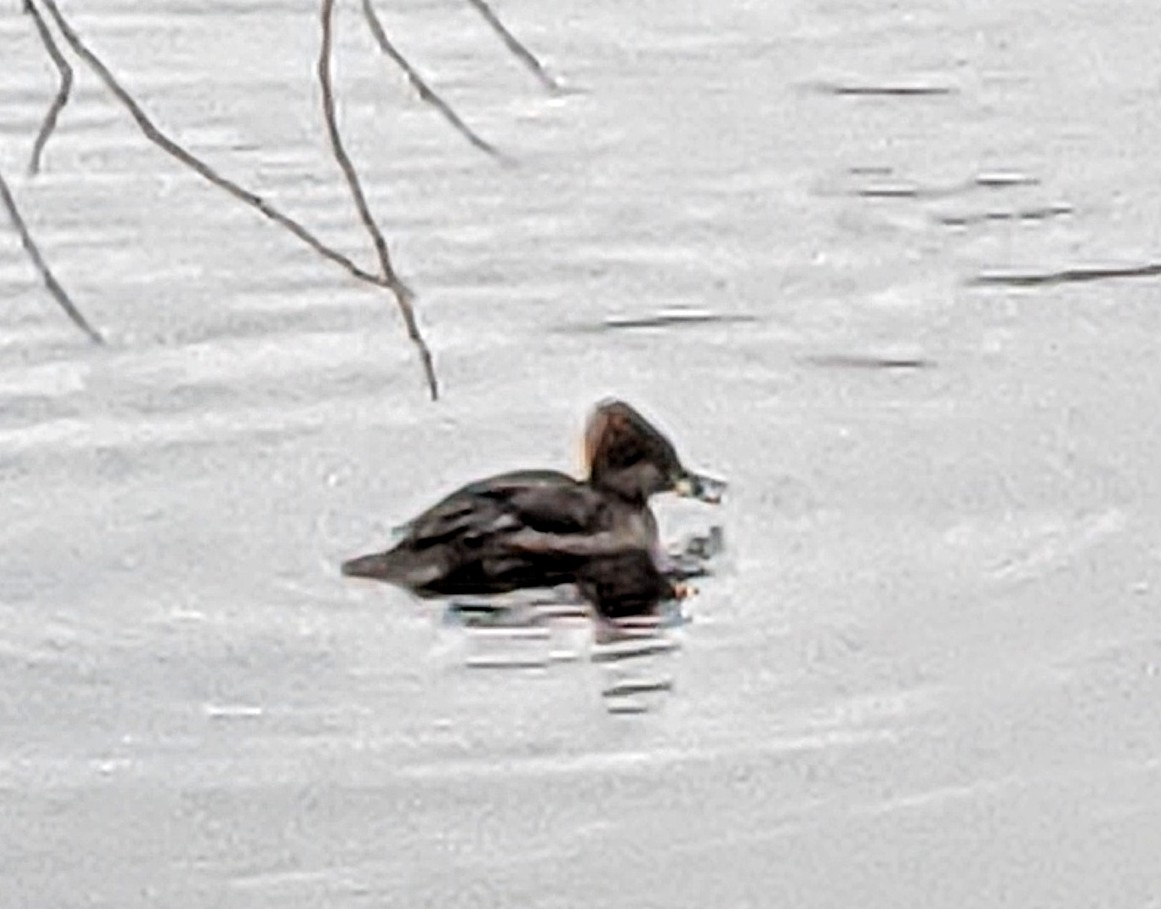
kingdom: Animalia
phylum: Chordata
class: Aves
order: Anseriformes
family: Anatidae
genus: Lophodytes
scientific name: Lophodytes cucullatus
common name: Hooded merganser
